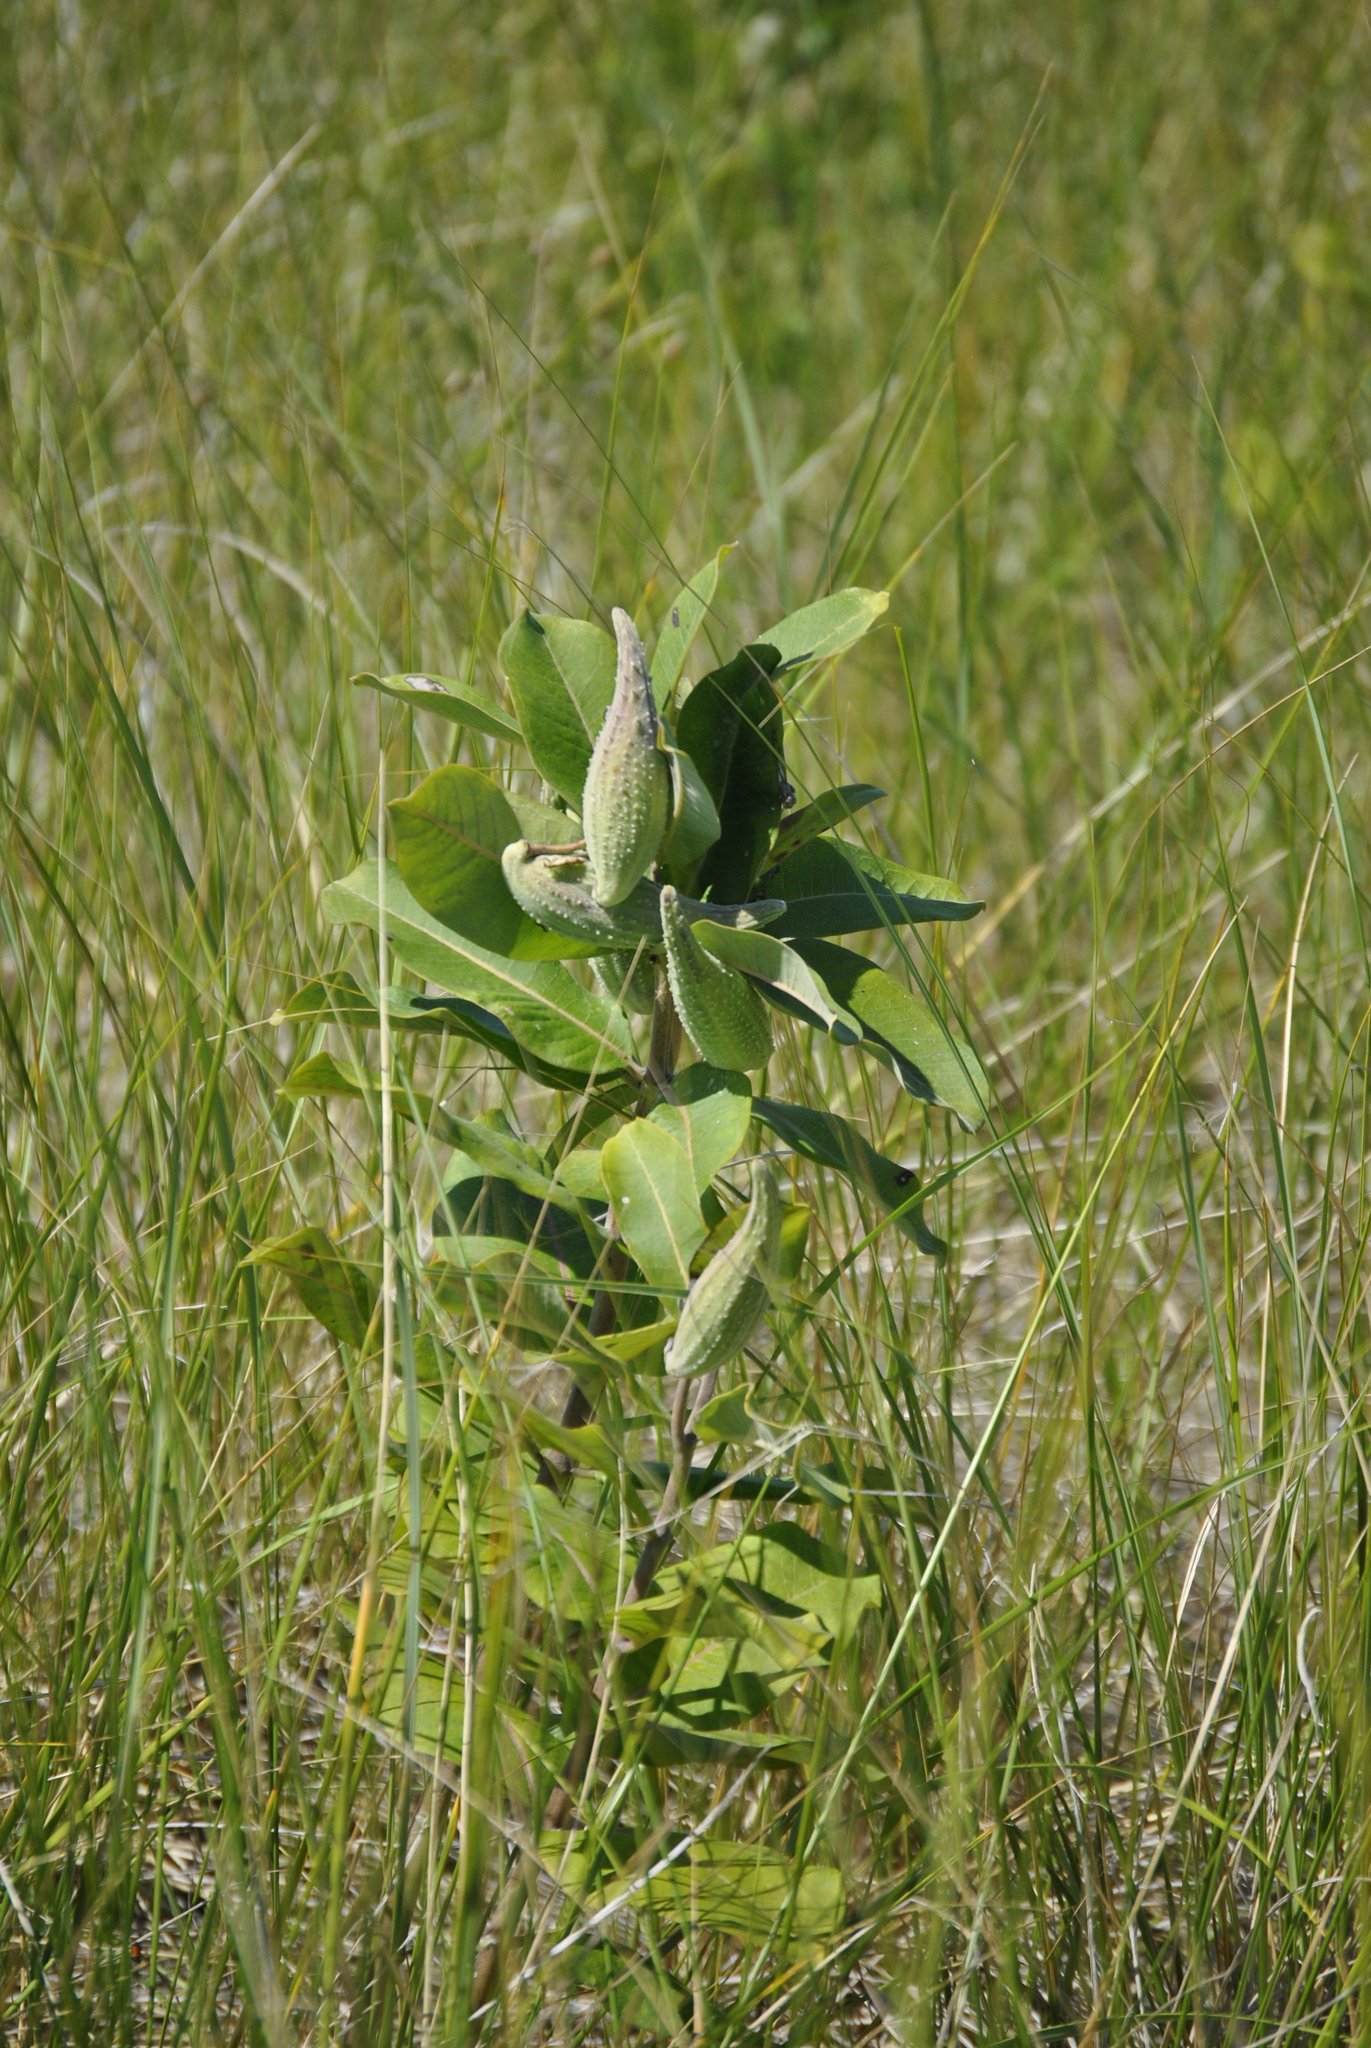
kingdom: Plantae
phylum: Tracheophyta
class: Magnoliopsida
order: Gentianales
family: Apocynaceae
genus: Asclepias
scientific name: Asclepias syriaca
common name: Common milkweed
